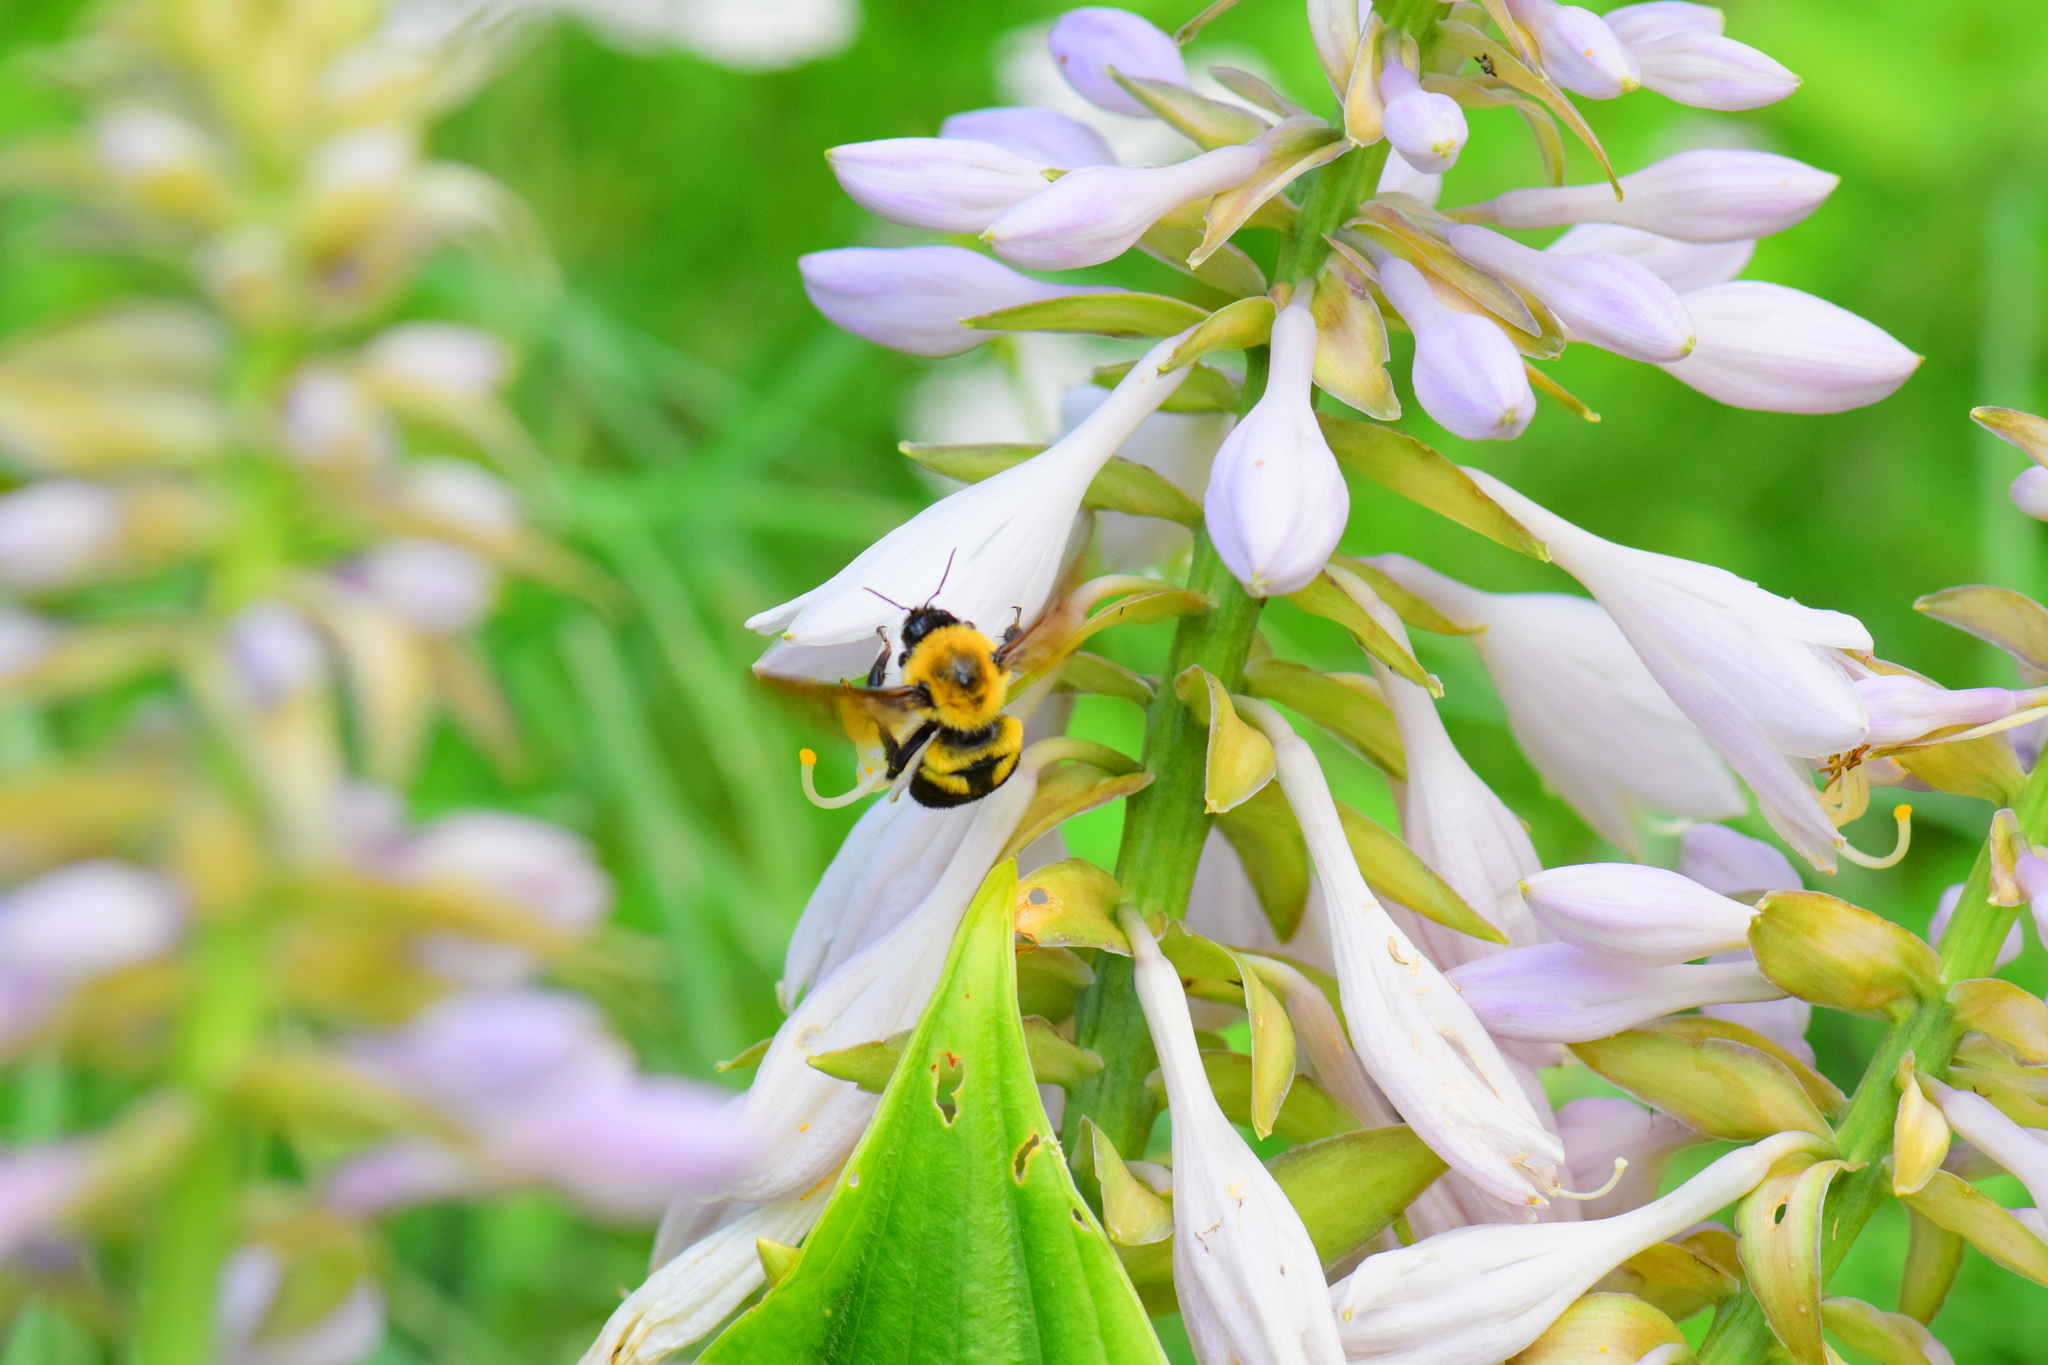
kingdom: Animalia
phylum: Arthropoda
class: Insecta
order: Hymenoptera
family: Apidae
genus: Bombus
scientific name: Bombus griseocollis
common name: Brown-belted bumble bee
